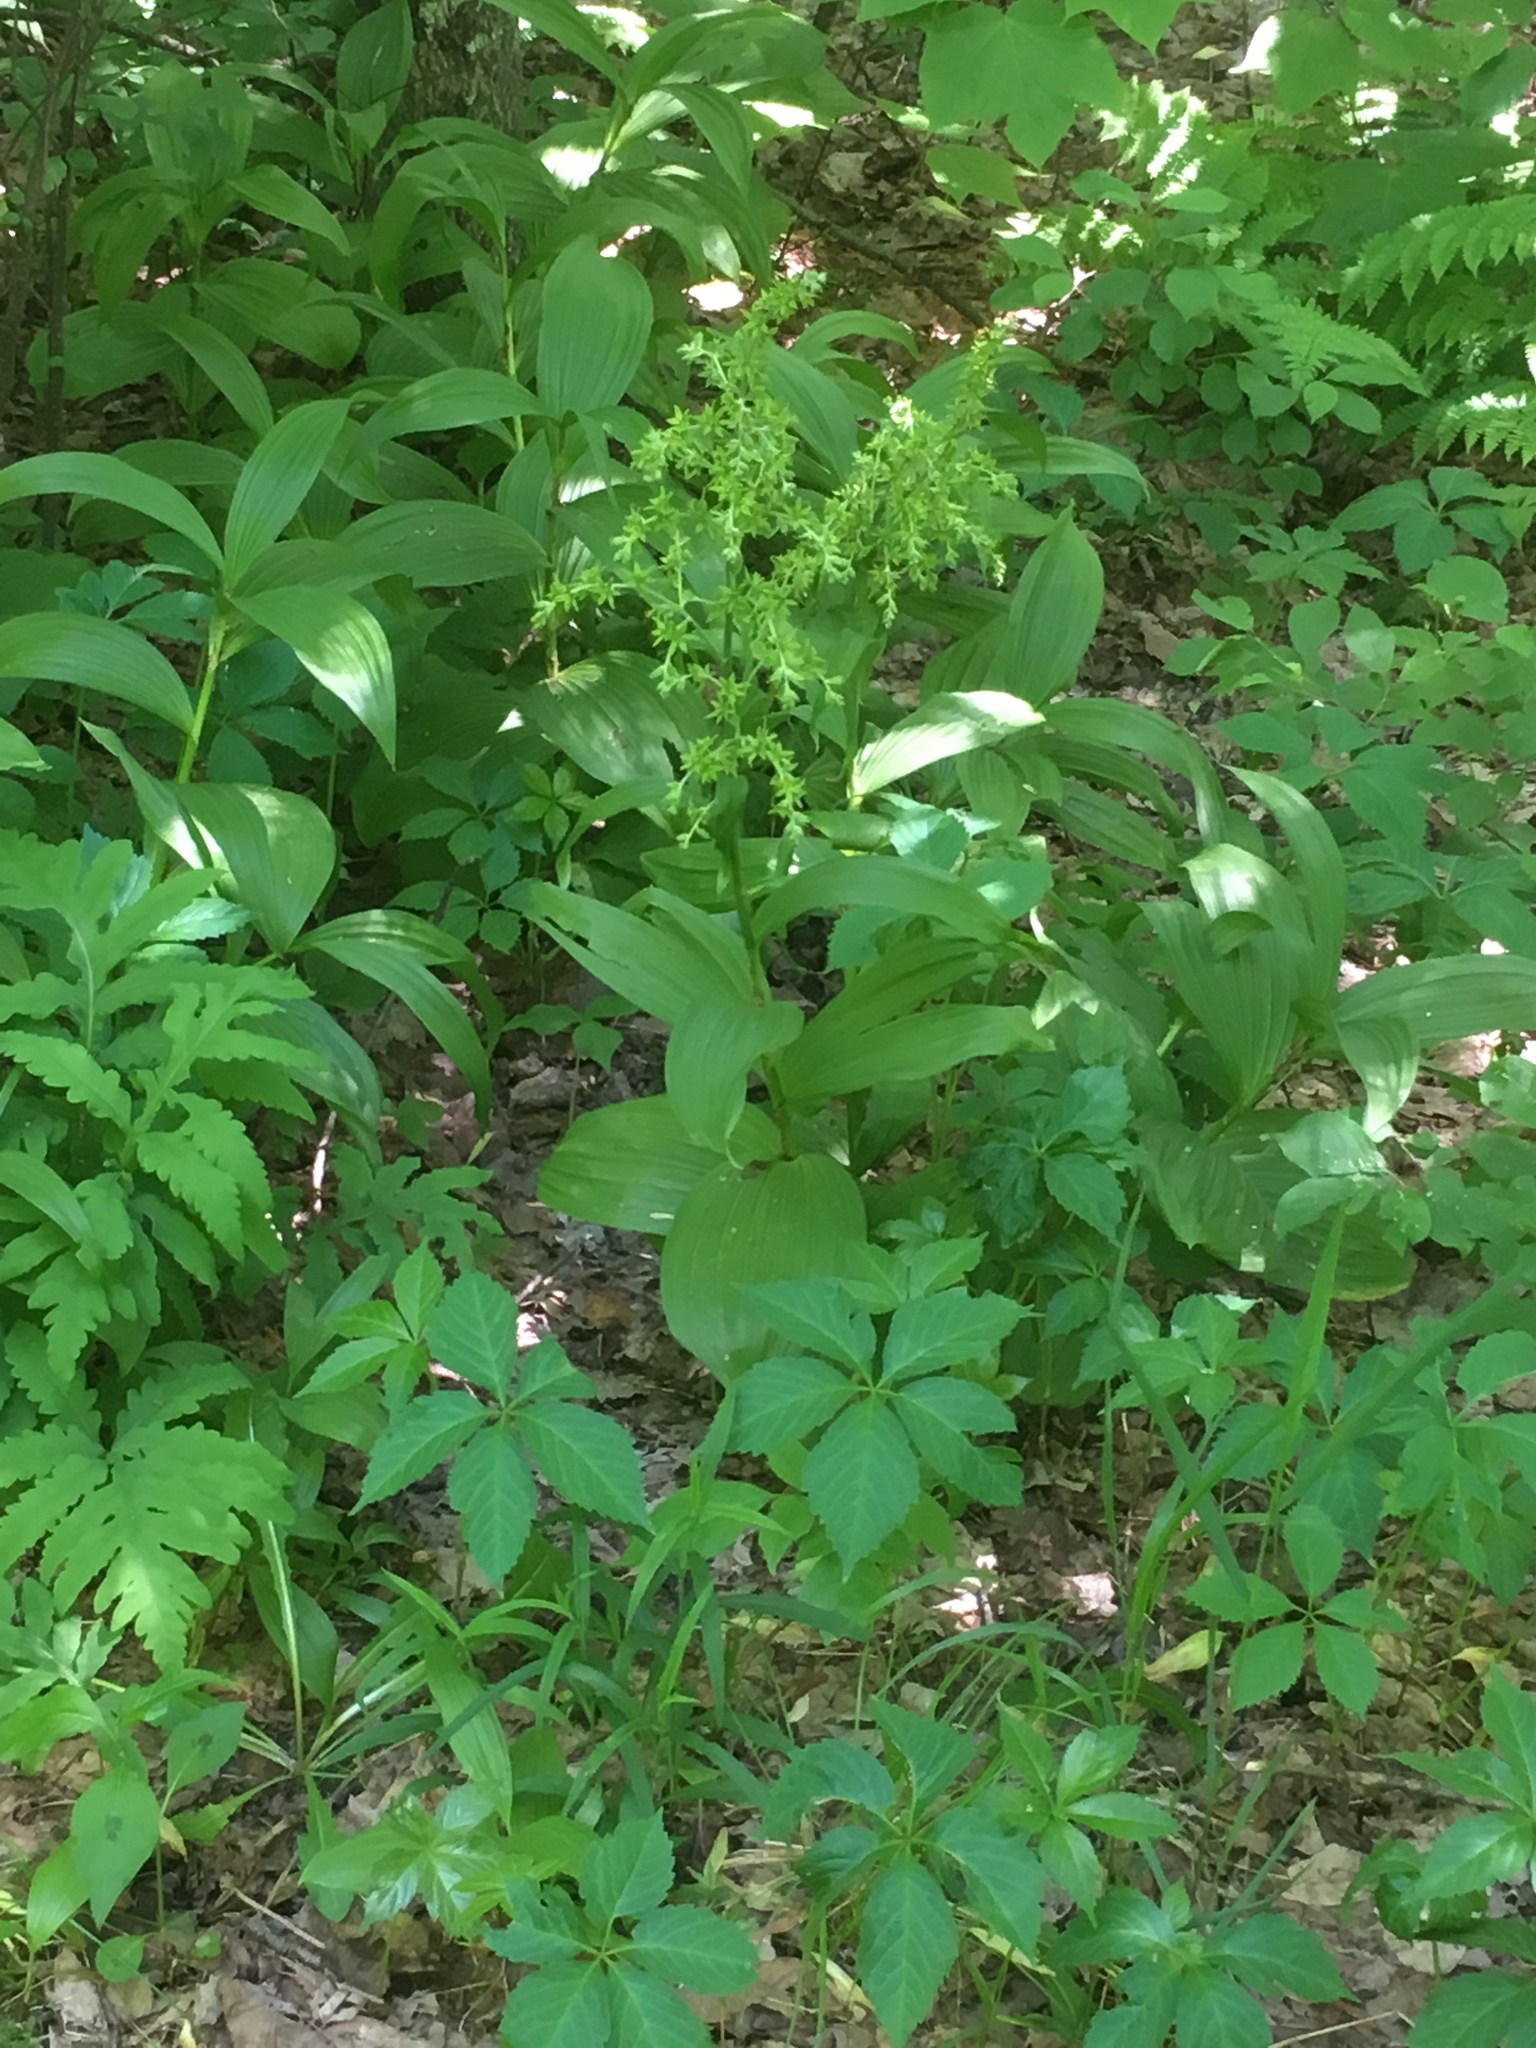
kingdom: Plantae
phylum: Tracheophyta
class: Liliopsida
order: Liliales
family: Melanthiaceae
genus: Veratrum
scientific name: Veratrum viride
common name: American false hellebore
